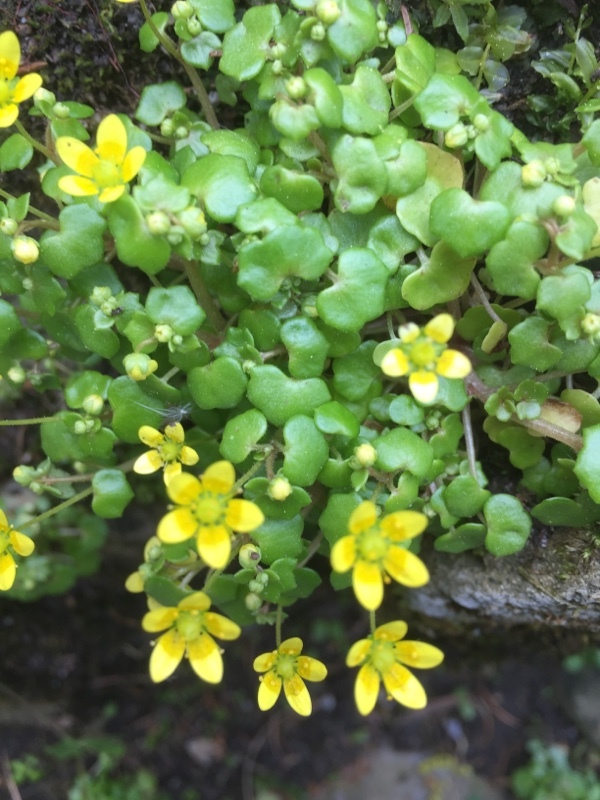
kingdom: Plantae
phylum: Tracheophyta
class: Magnoliopsida
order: Saxifragales
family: Saxifragaceae
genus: Saxifraga
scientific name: Saxifraga cymbalaria
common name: Celandine saxifrage
